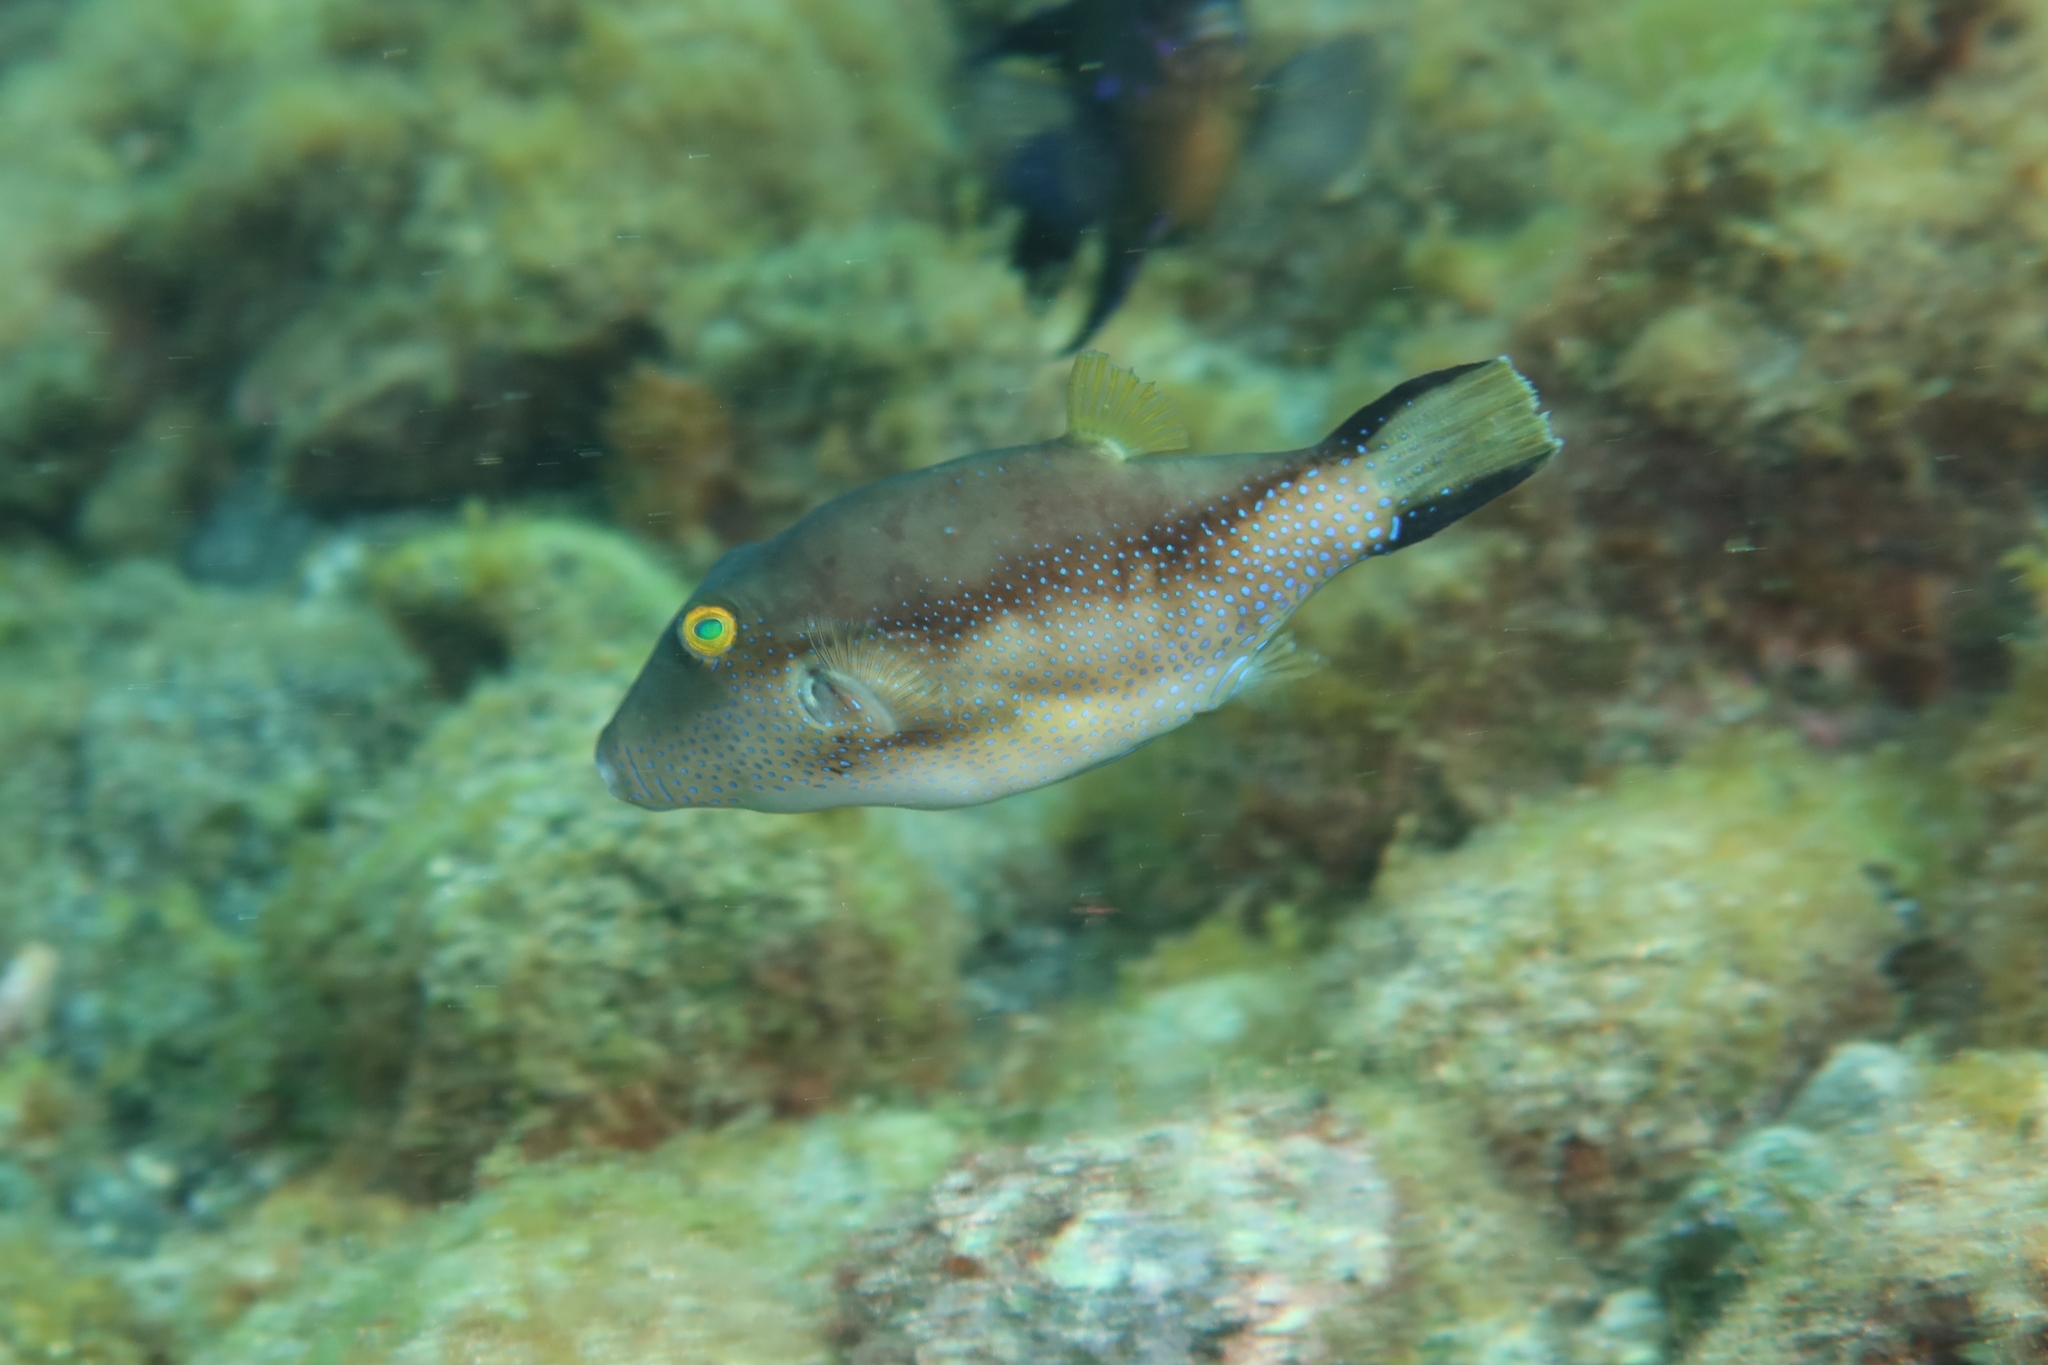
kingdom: Animalia
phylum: Chordata
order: Tetraodontiformes
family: Tetraodontidae
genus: Canthigaster
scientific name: Canthigaster capistrata
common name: Macaronesian sharpnose-puffer
